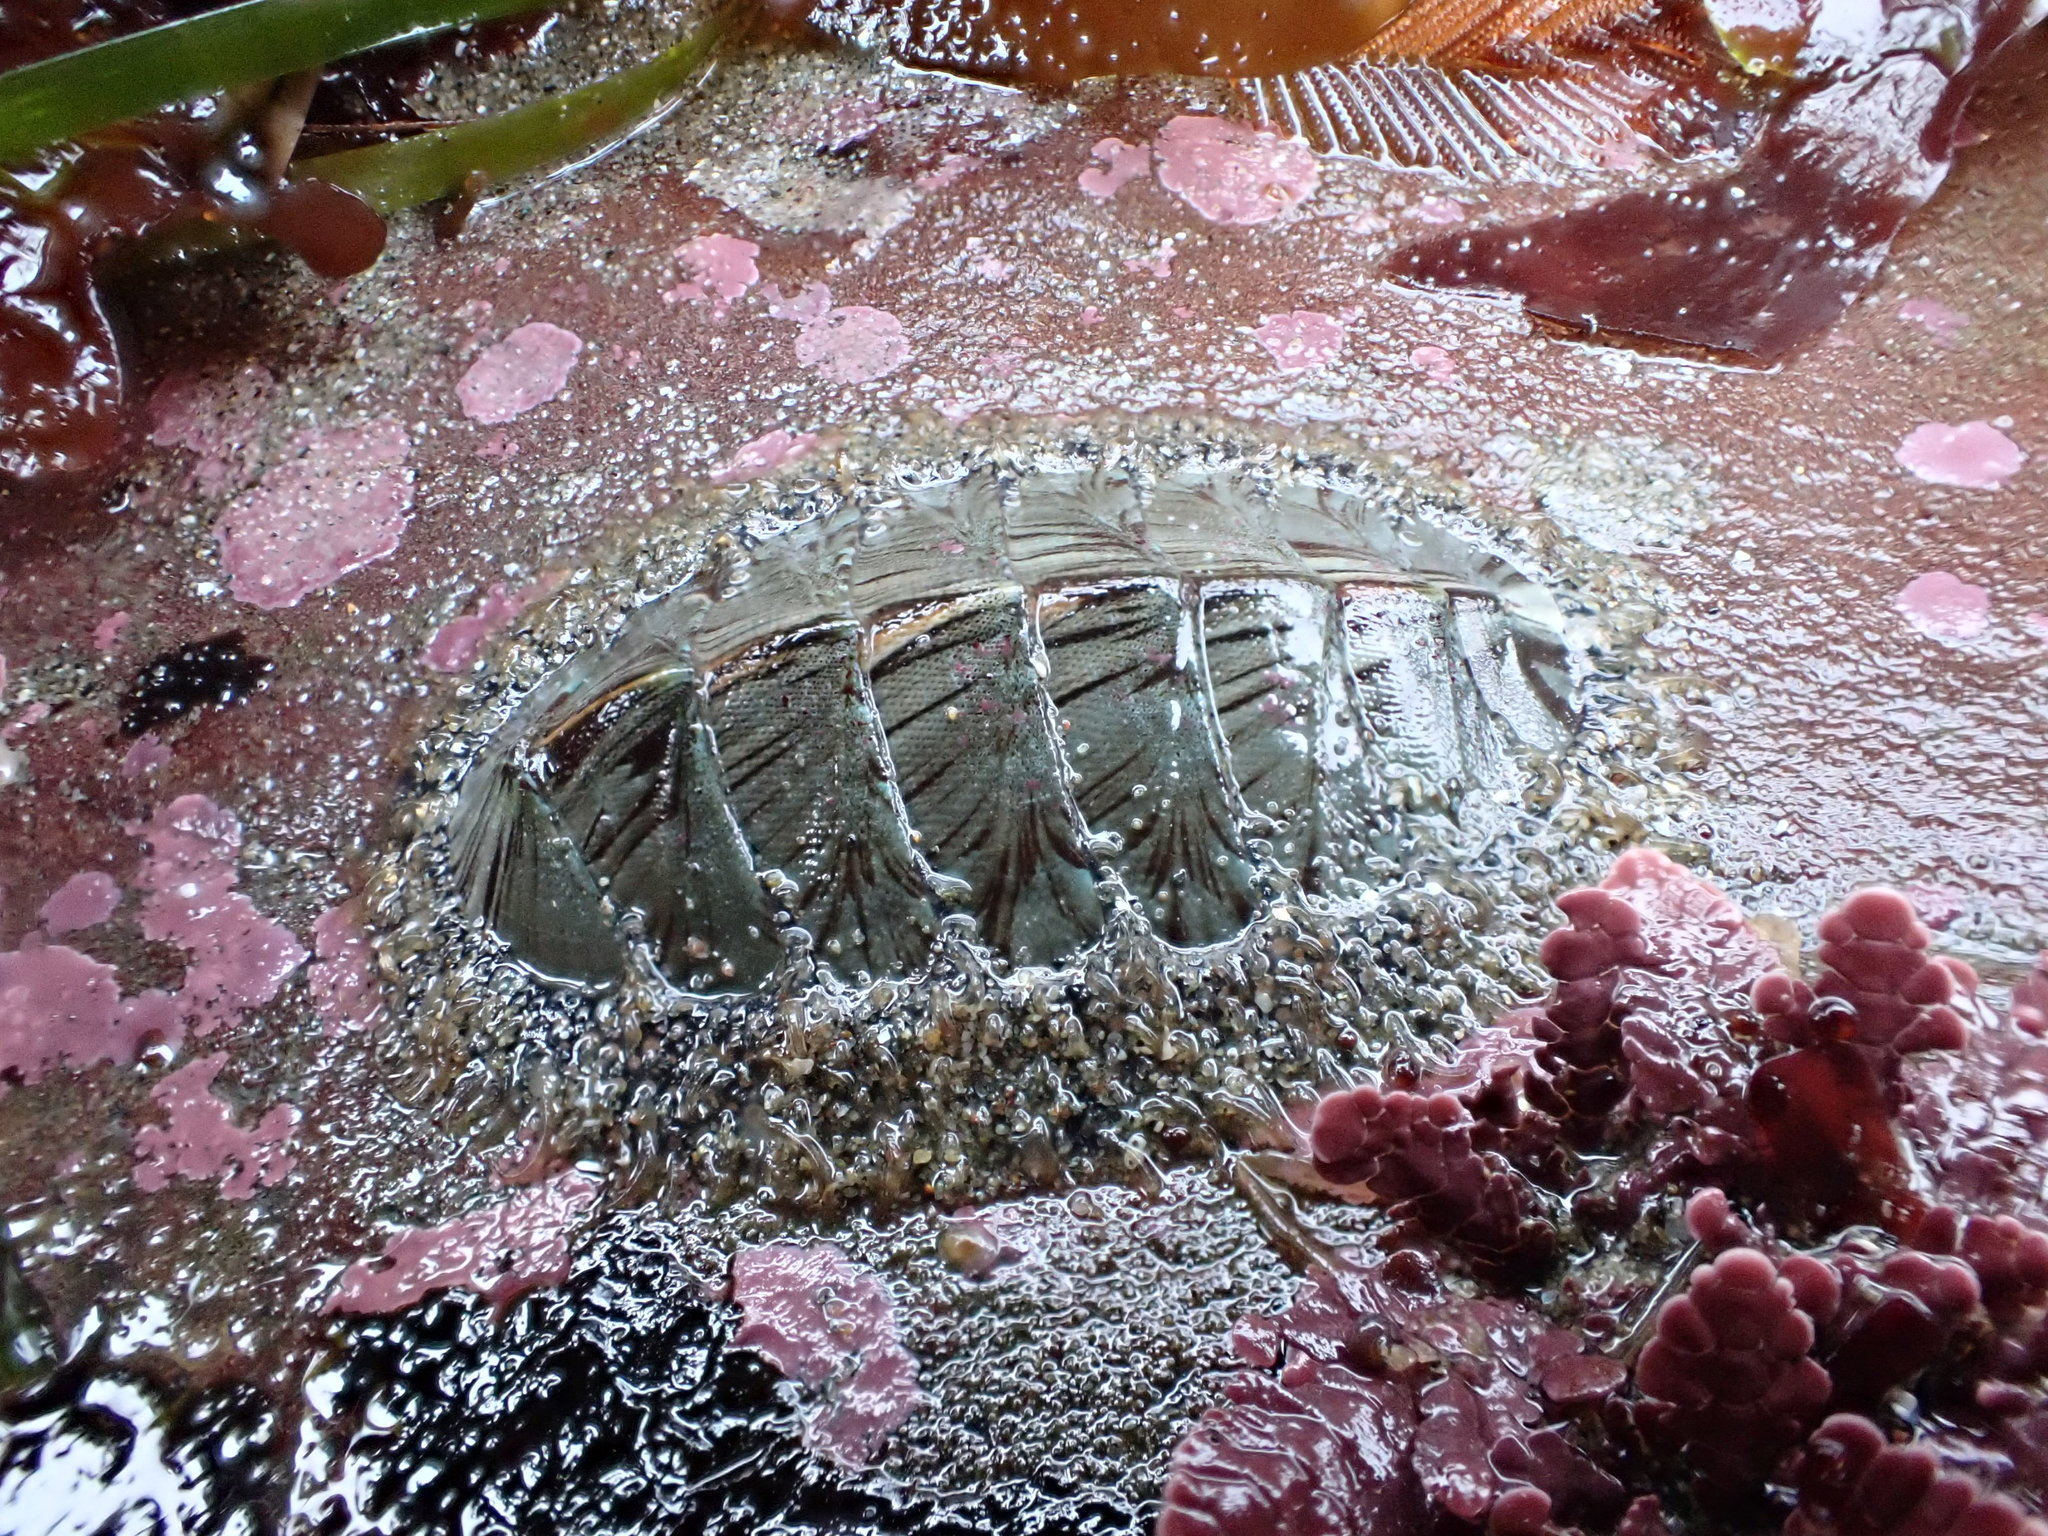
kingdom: Animalia
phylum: Mollusca
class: Polyplacophora
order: Chitonida
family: Mopaliidae
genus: Mopalia
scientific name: Mopalia lignosa
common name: Woody chiton
